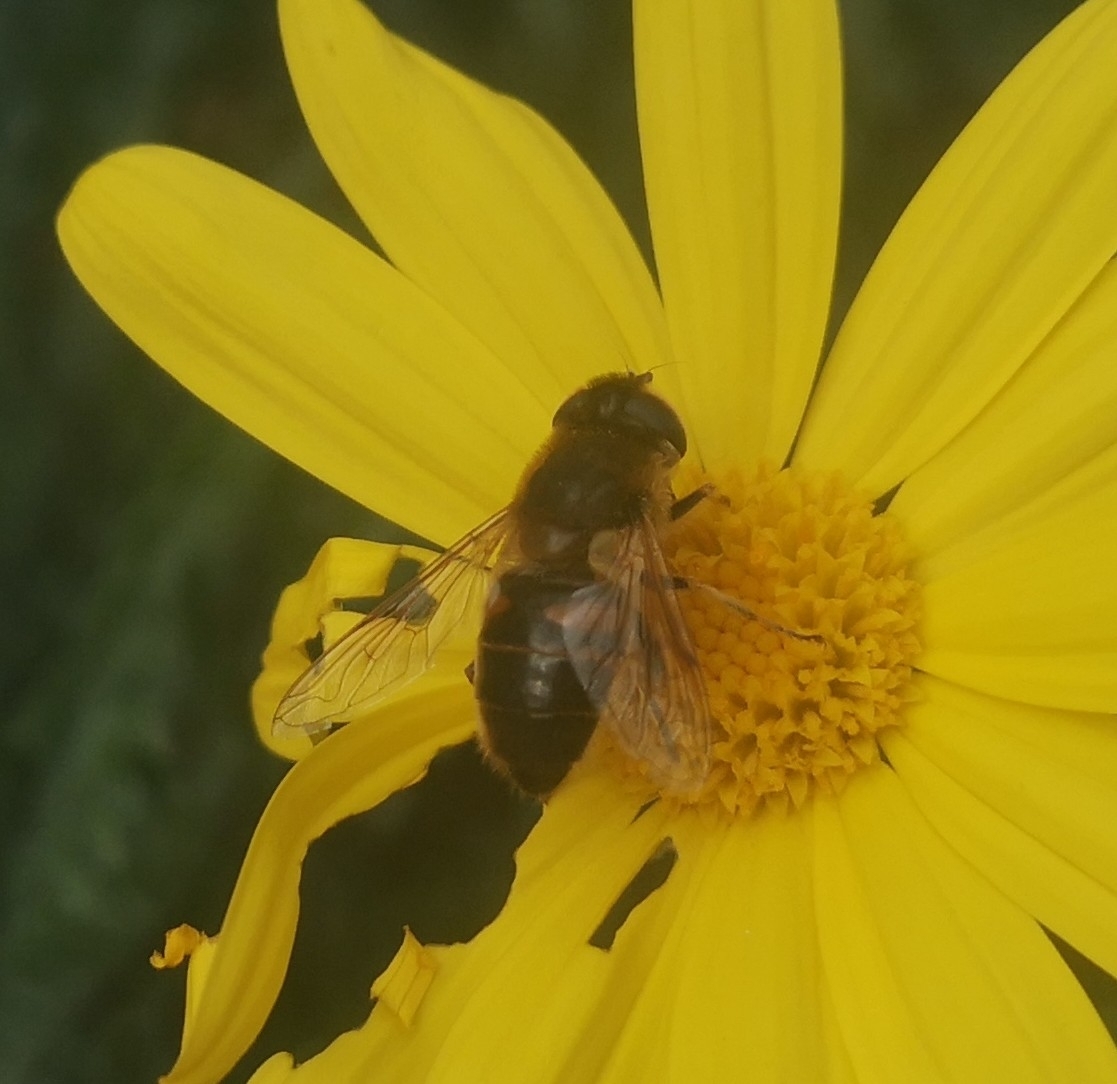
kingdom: Animalia
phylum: Arthropoda
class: Insecta
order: Diptera
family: Syrphidae
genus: Eristalis
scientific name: Eristalis tenax
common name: Drone fly
